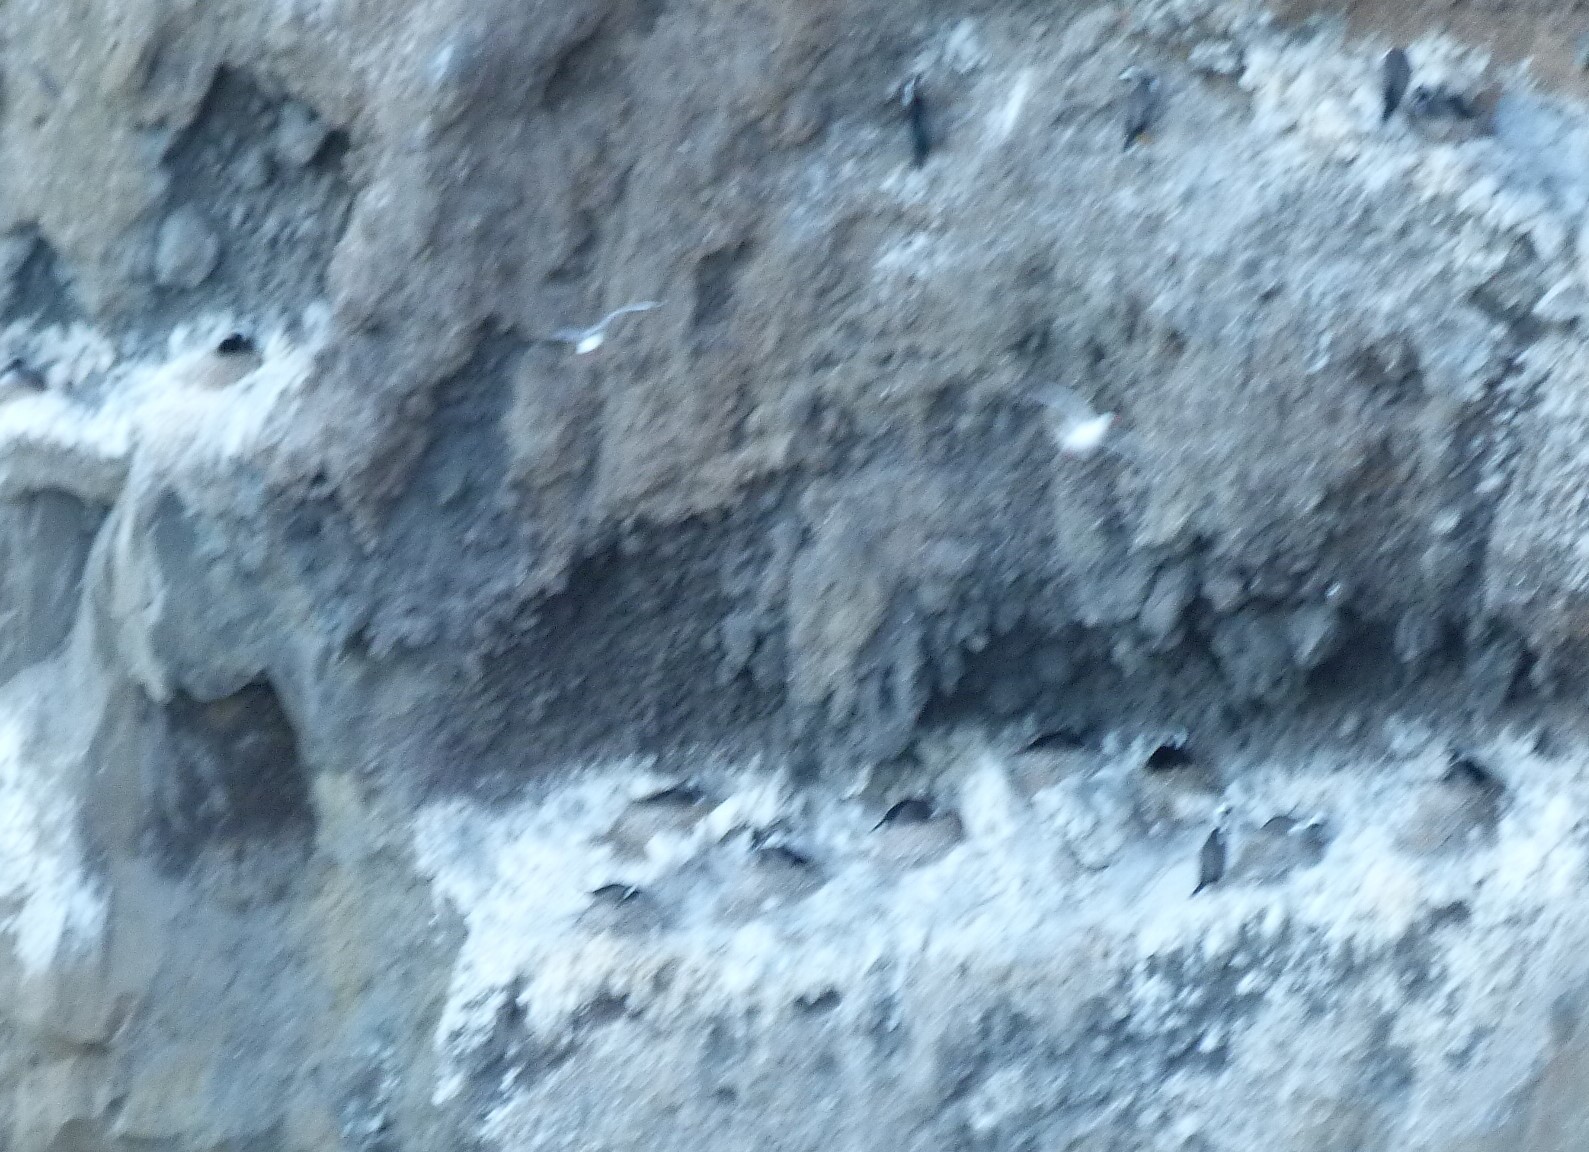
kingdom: Animalia
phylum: Chordata
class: Aves
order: Suliformes
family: Phalacrocoracidae
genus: Phalacrocorax
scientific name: Phalacrocorax punctatus
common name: Spotted shag
